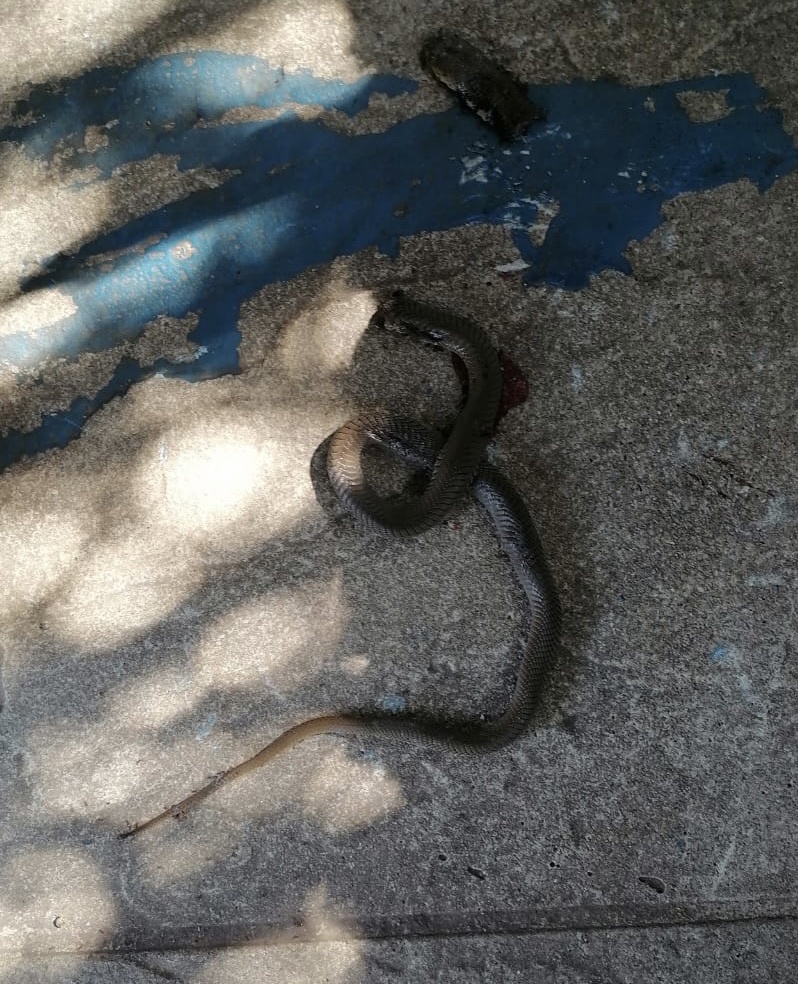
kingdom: Animalia
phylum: Chordata
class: Squamata
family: Elapidae
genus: Naja
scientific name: Naja mossambica
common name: Mozambique spitting cobra
